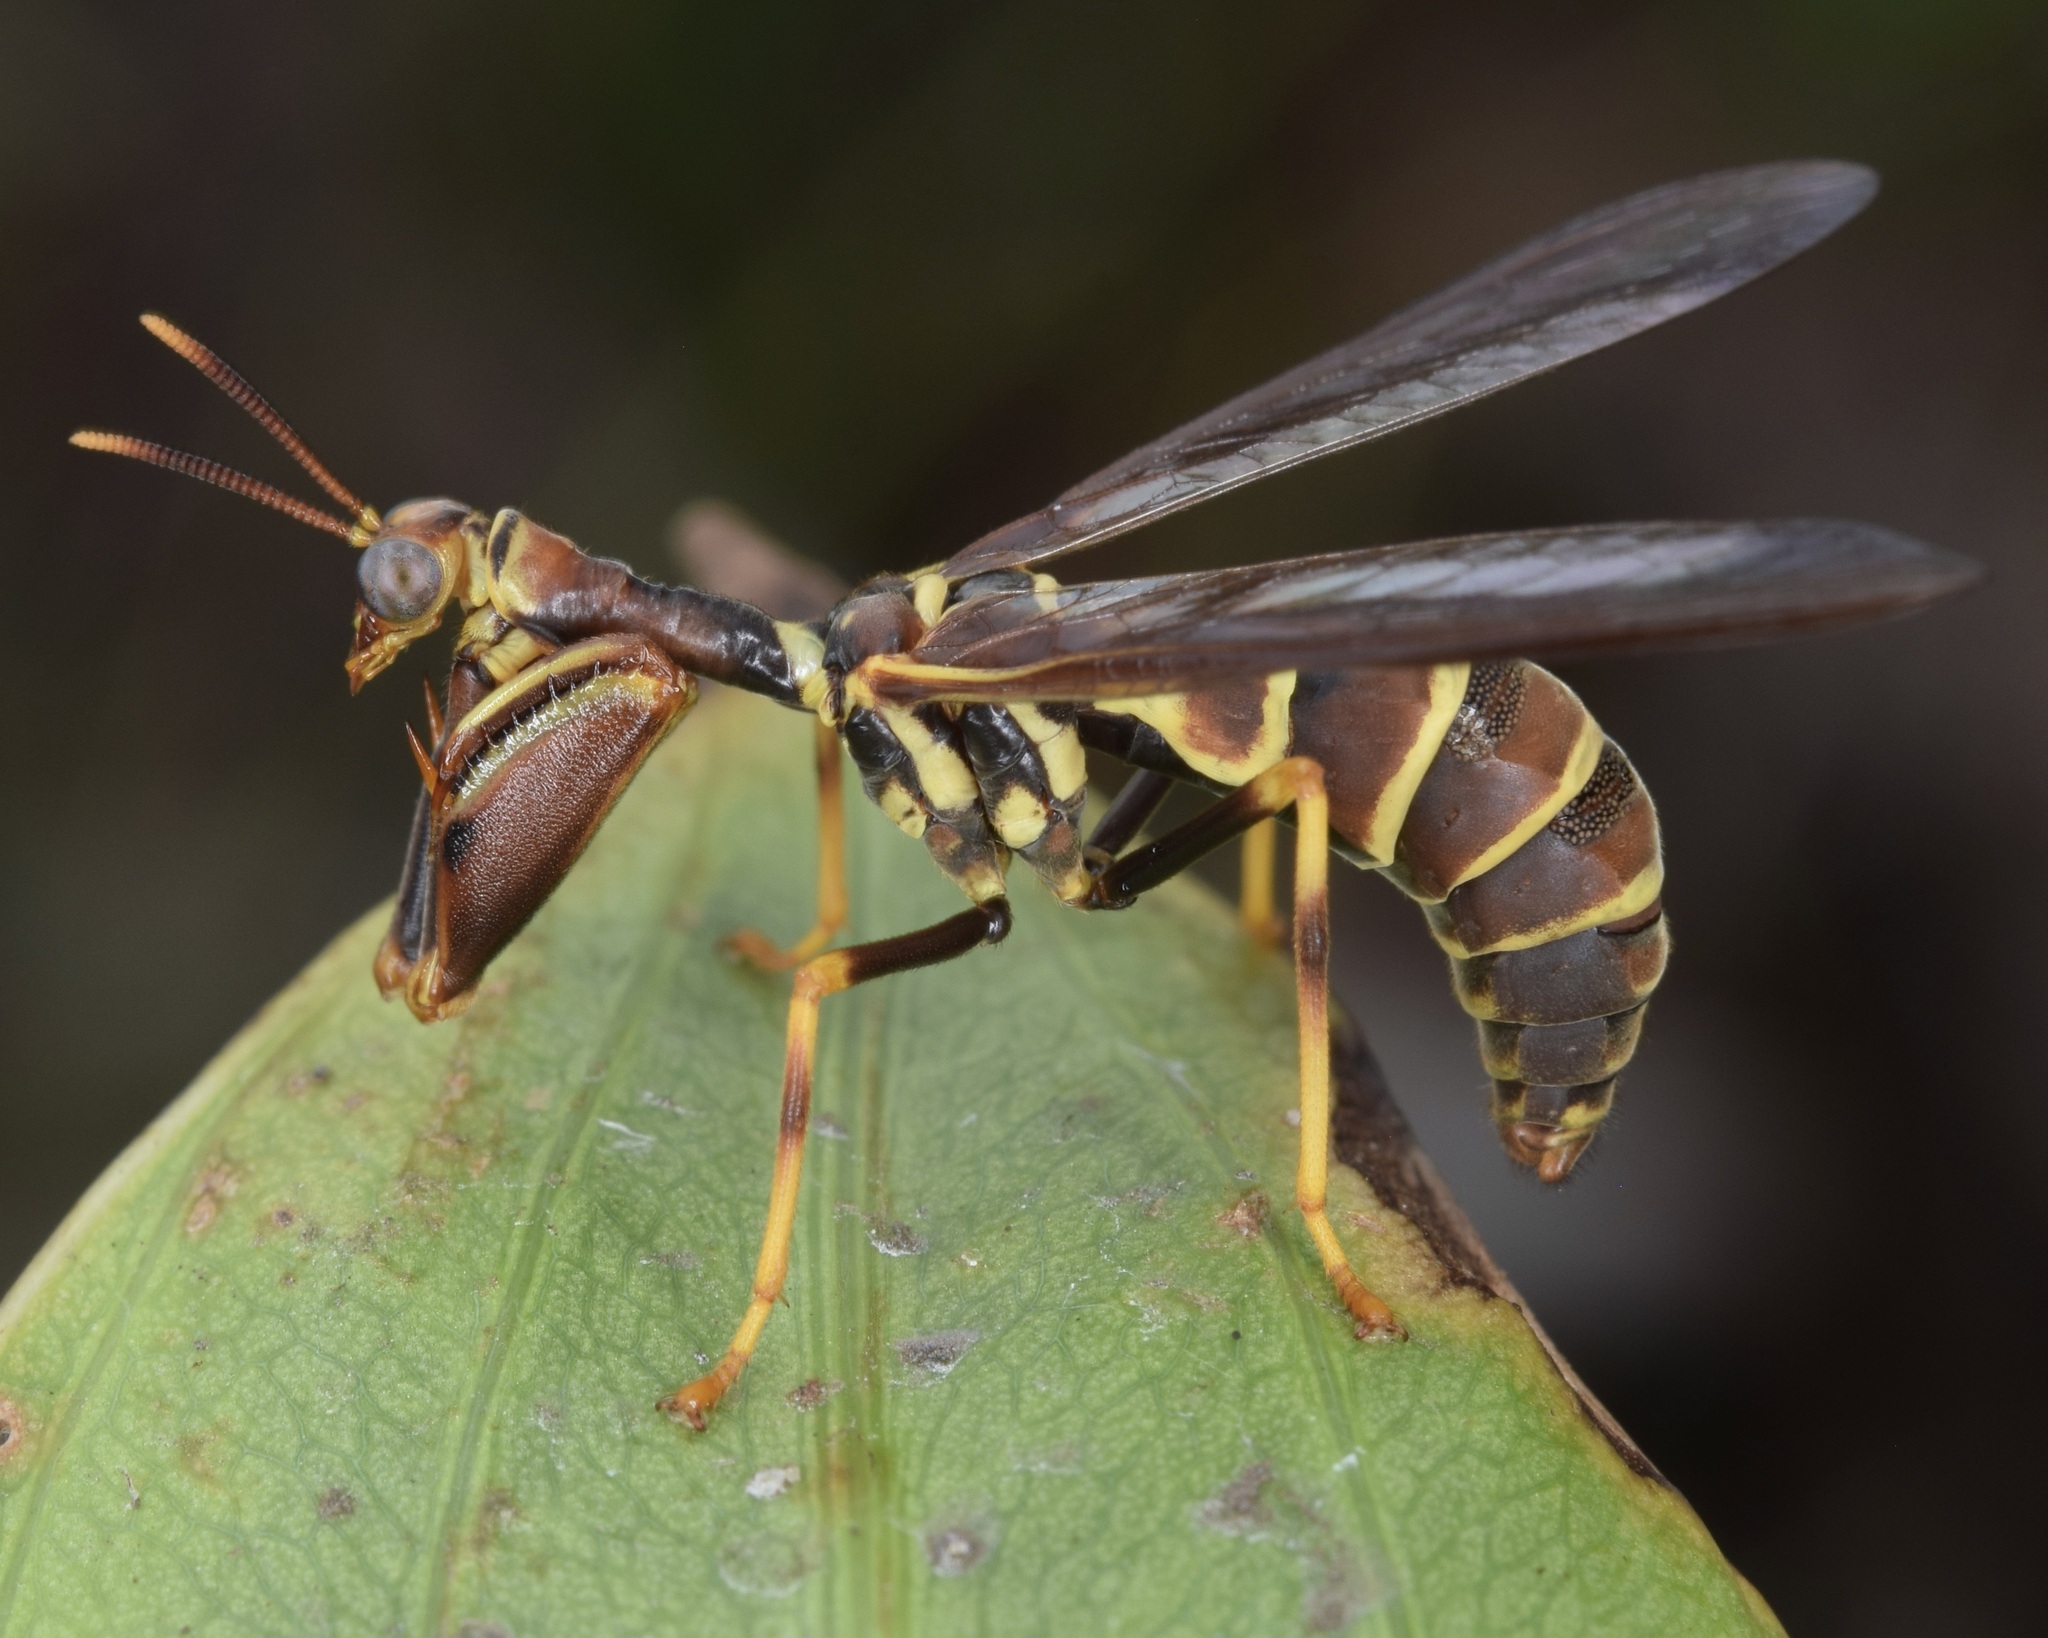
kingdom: Animalia
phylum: Arthropoda
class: Insecta
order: Neuroptera
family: Mantispidae
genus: Climaciella
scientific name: Climaciella brunnea
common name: Brown wasp mantidfly
